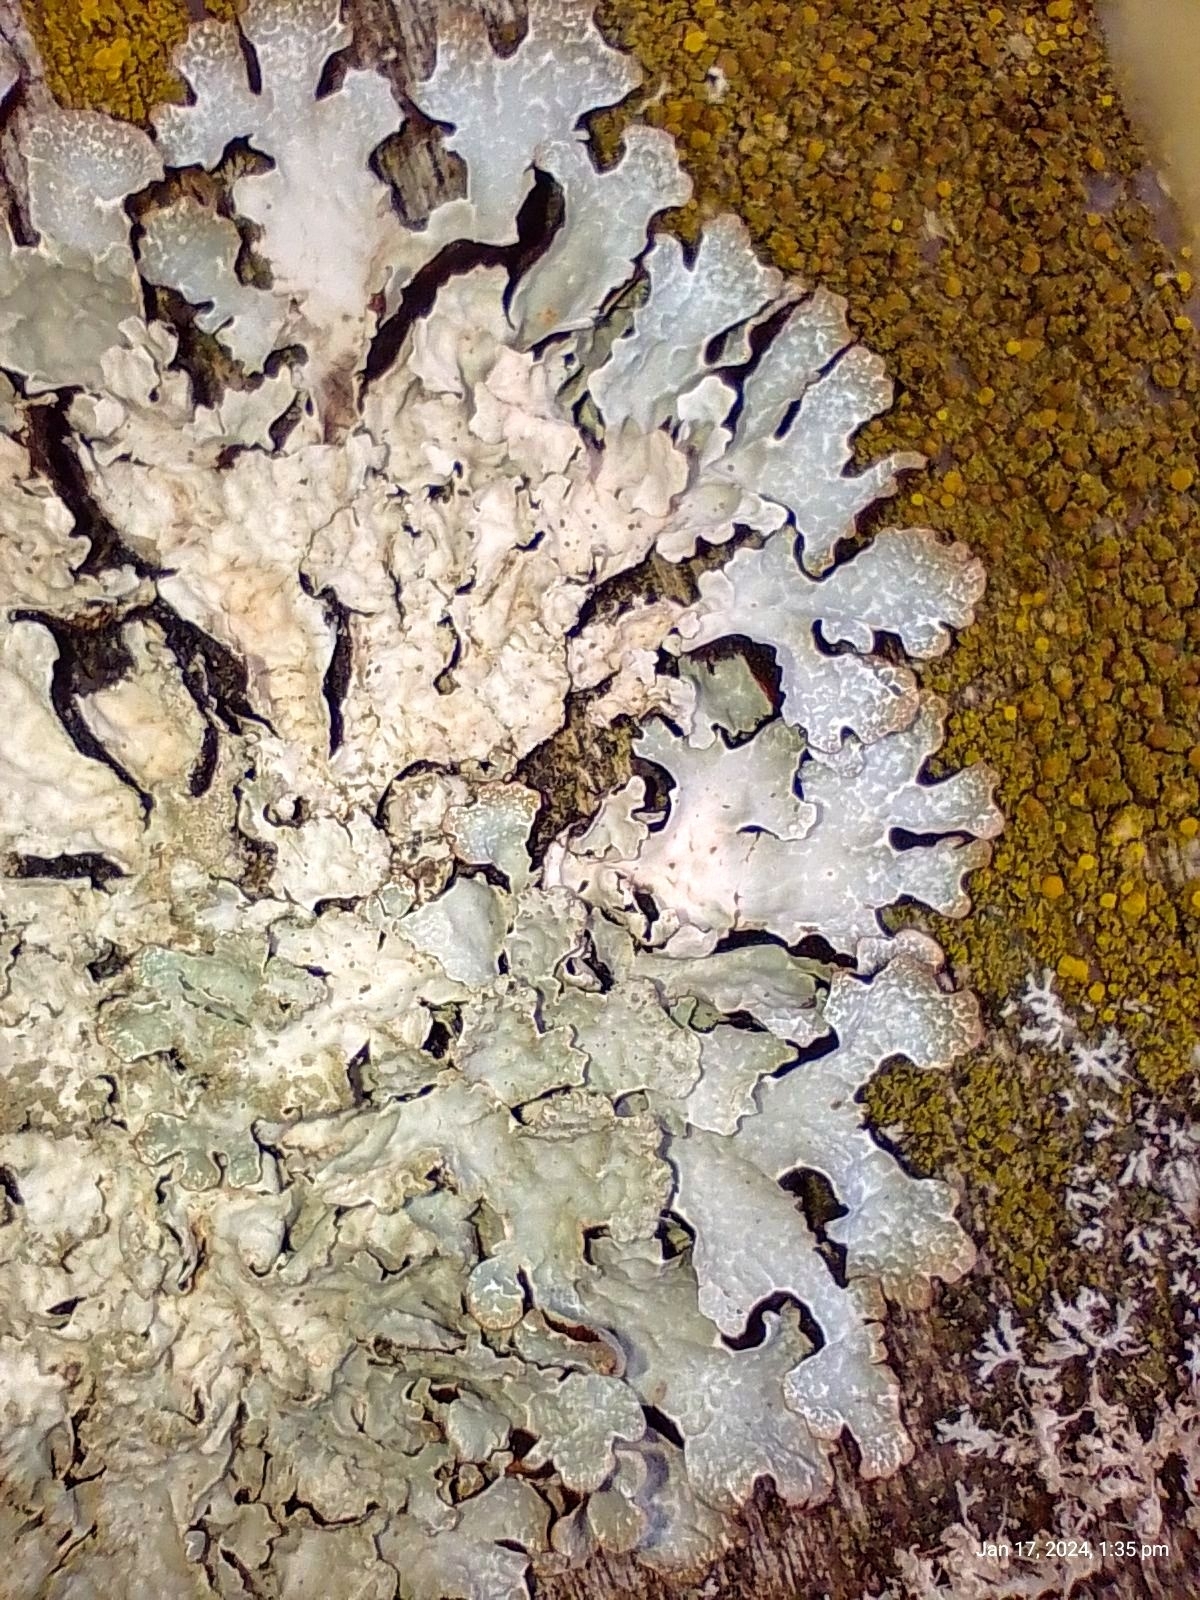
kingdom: Fungi
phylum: Ascomycota
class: Lecanoromycetes
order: Lecanorales
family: Parmeliaceae
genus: Parmelia
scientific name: Parmelia sulcata
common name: Netted shield lichen
